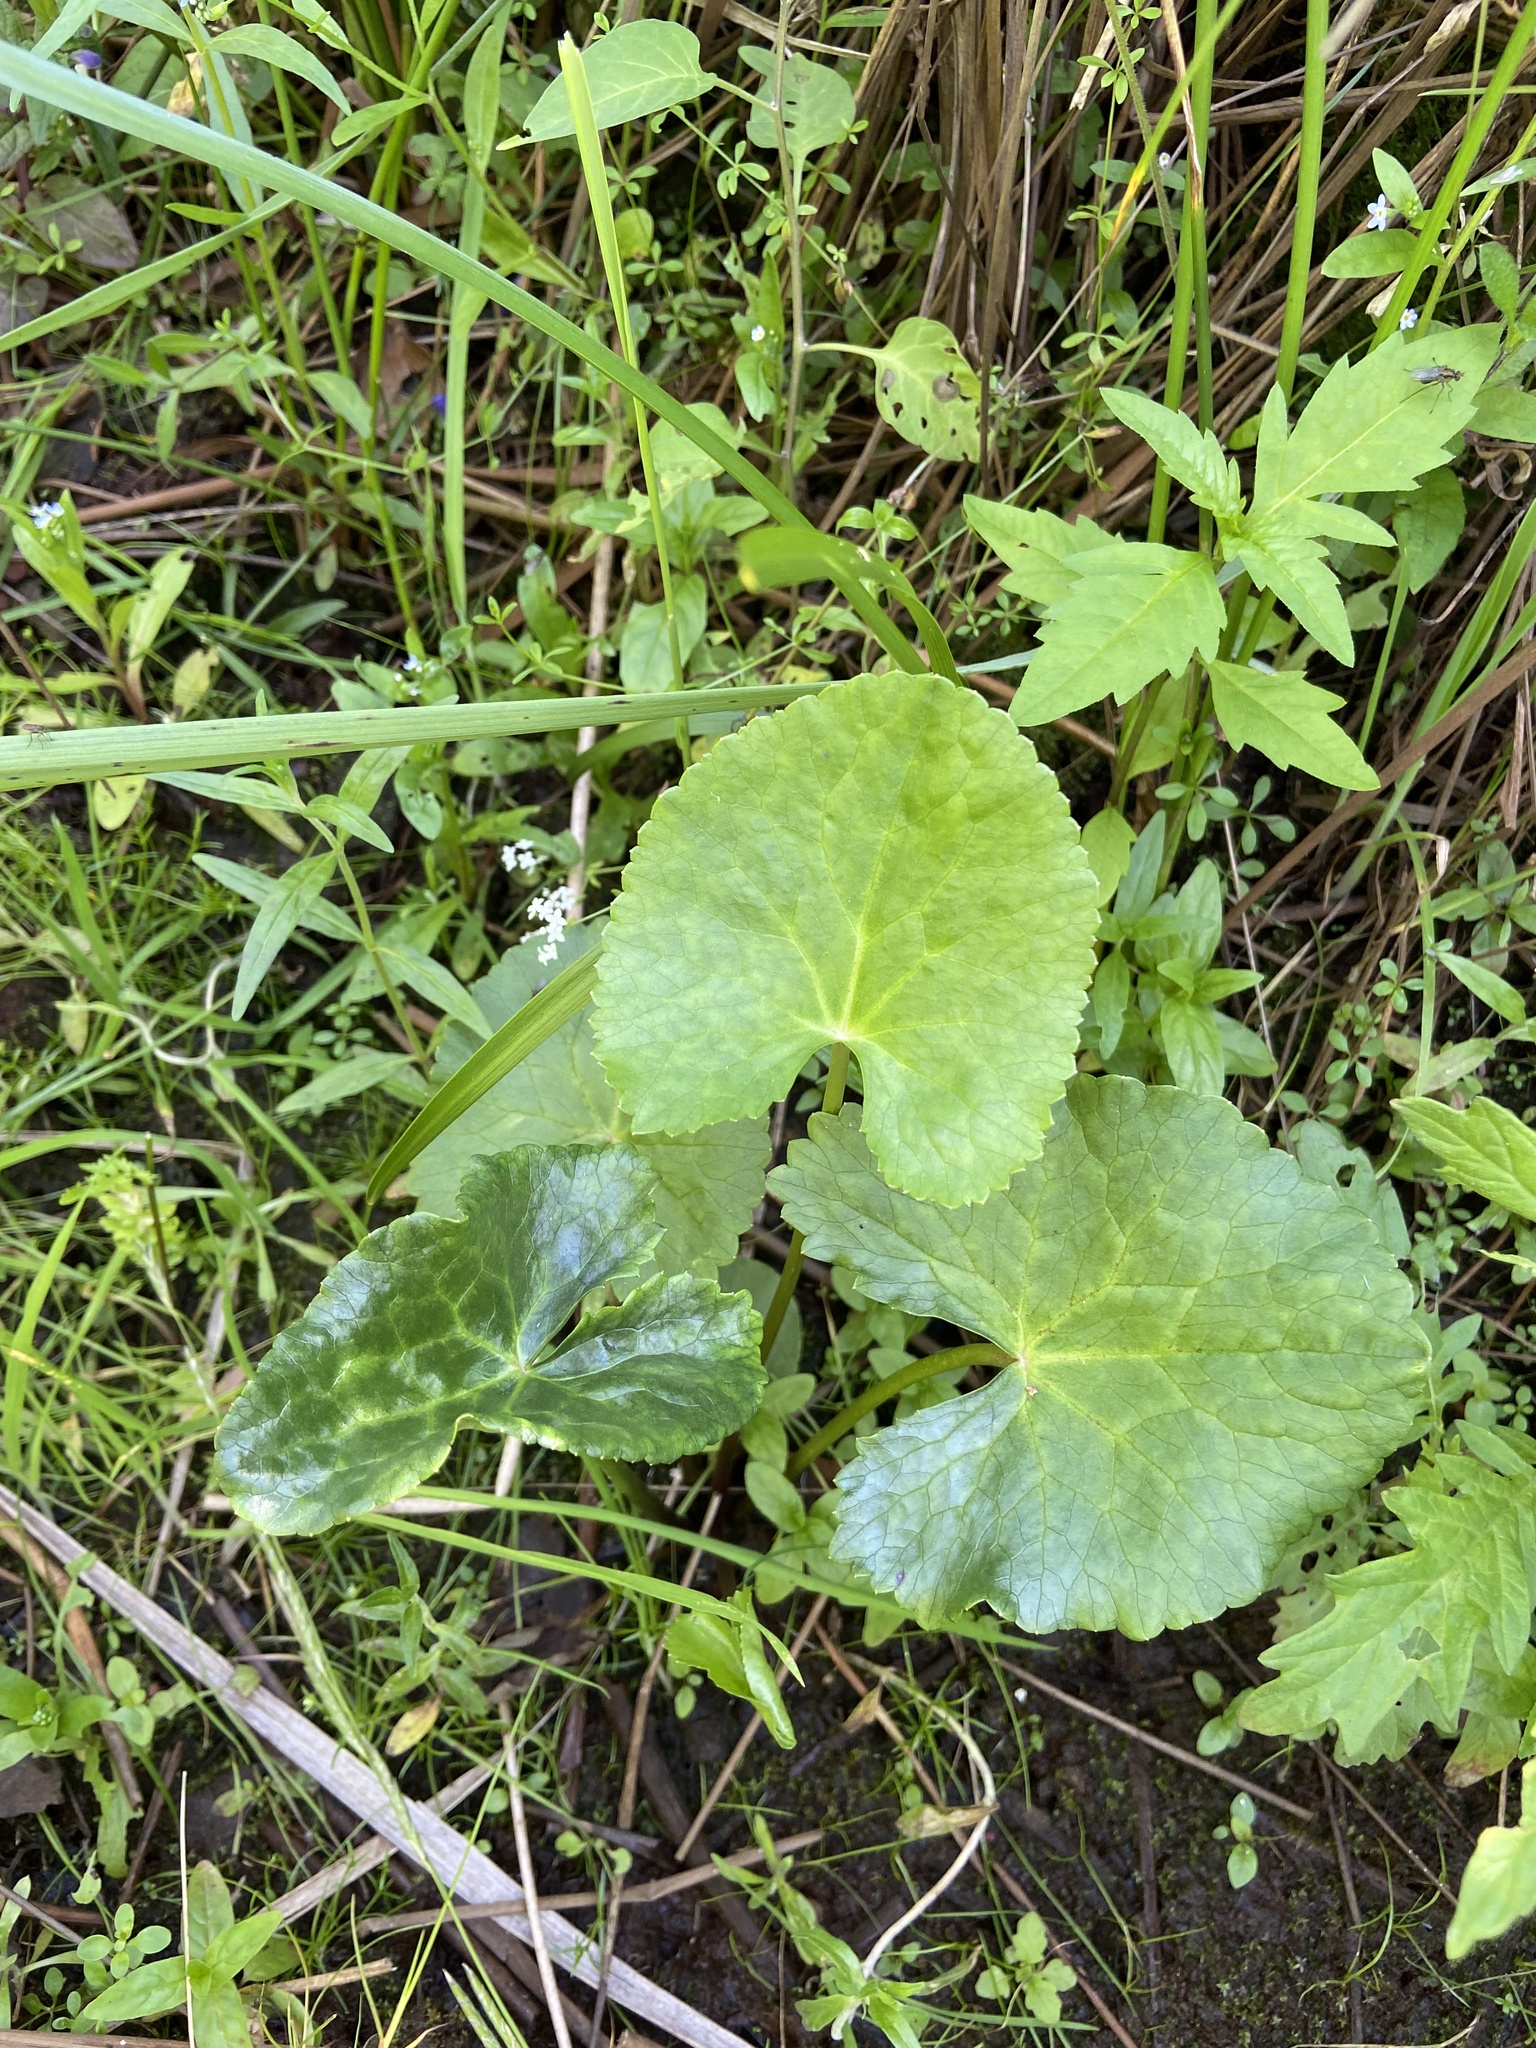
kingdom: Plantae
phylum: Tracheophyta
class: Magnoliopsida
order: Ranunculales
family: Ranunculaceae
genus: Caltha
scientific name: Caltha palustris
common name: Marsh marigold
